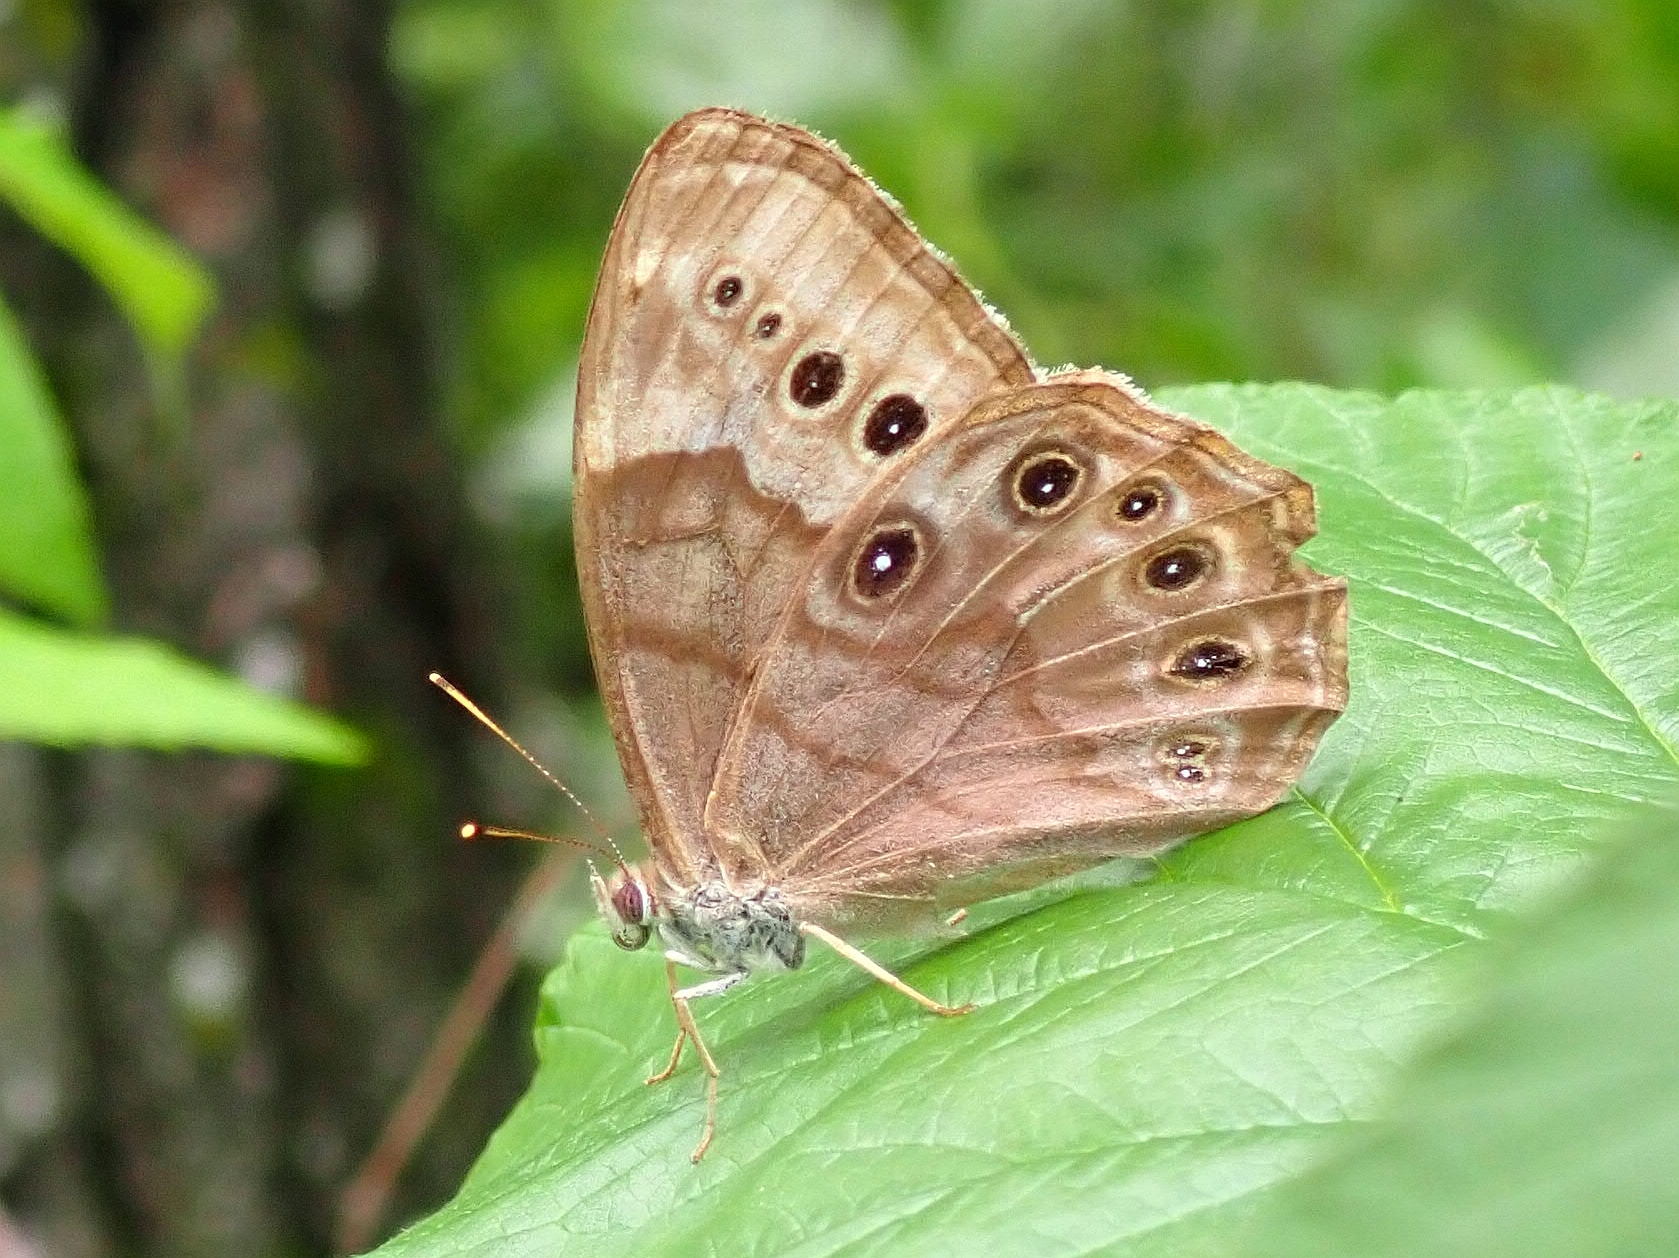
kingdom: Animalia
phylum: Arthropoda
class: Insecta
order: Lepidoptera
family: Nymphalidae
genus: Lethe
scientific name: Lethe anthedon
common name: Northern pearly-eye
